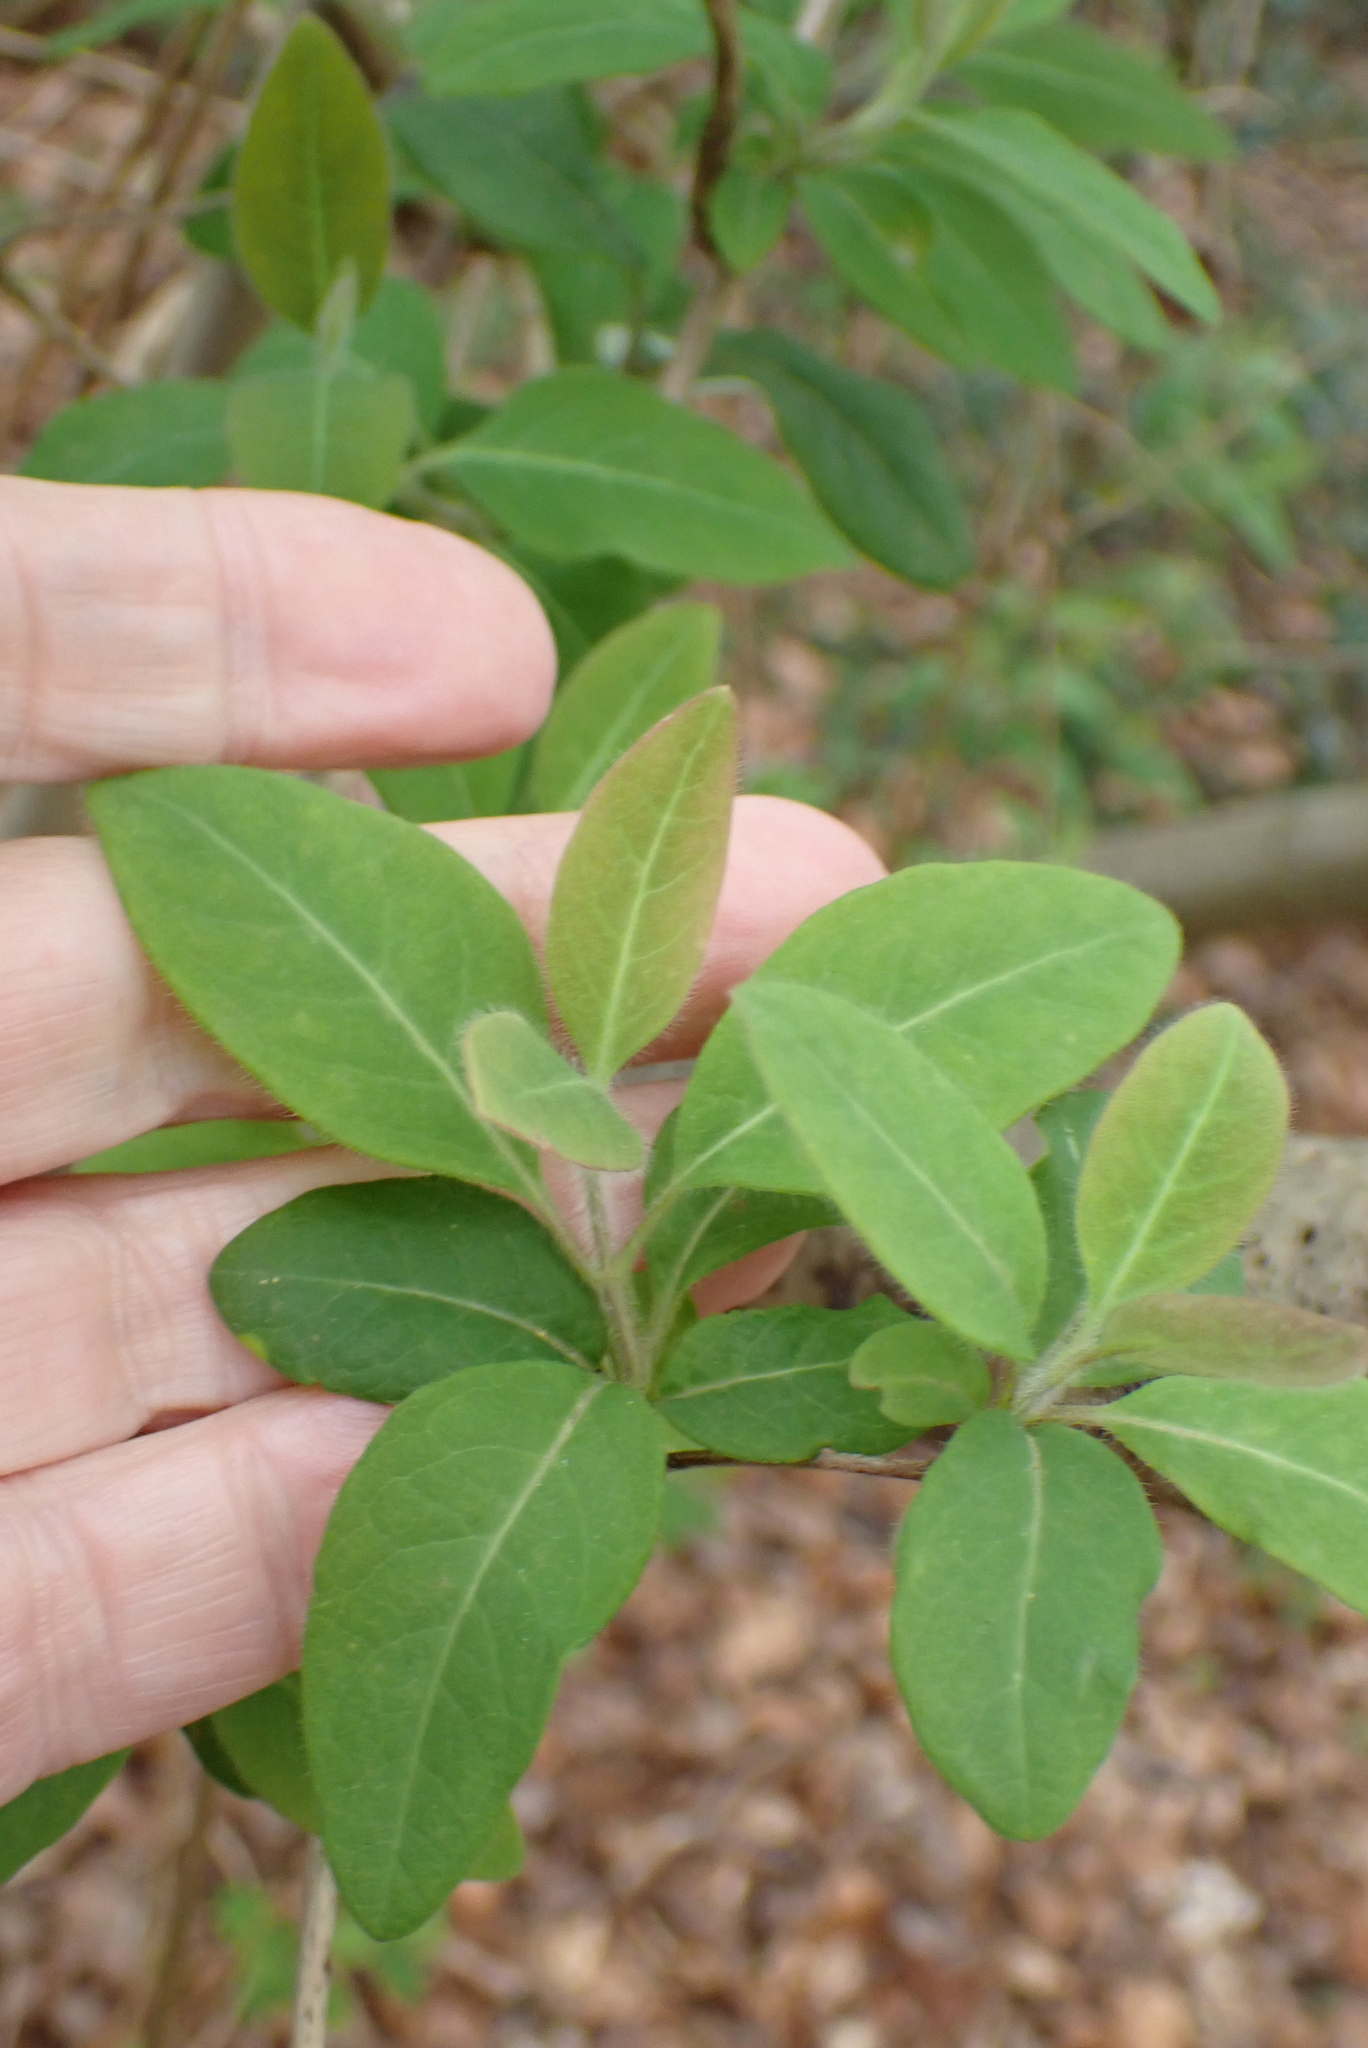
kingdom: Plantae
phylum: Tracheophyta
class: Magnoliopsida
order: Dipsacales
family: Caprifoliaceae
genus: Lonicera
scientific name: Lonicera periclymenum
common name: European honeysuckle
